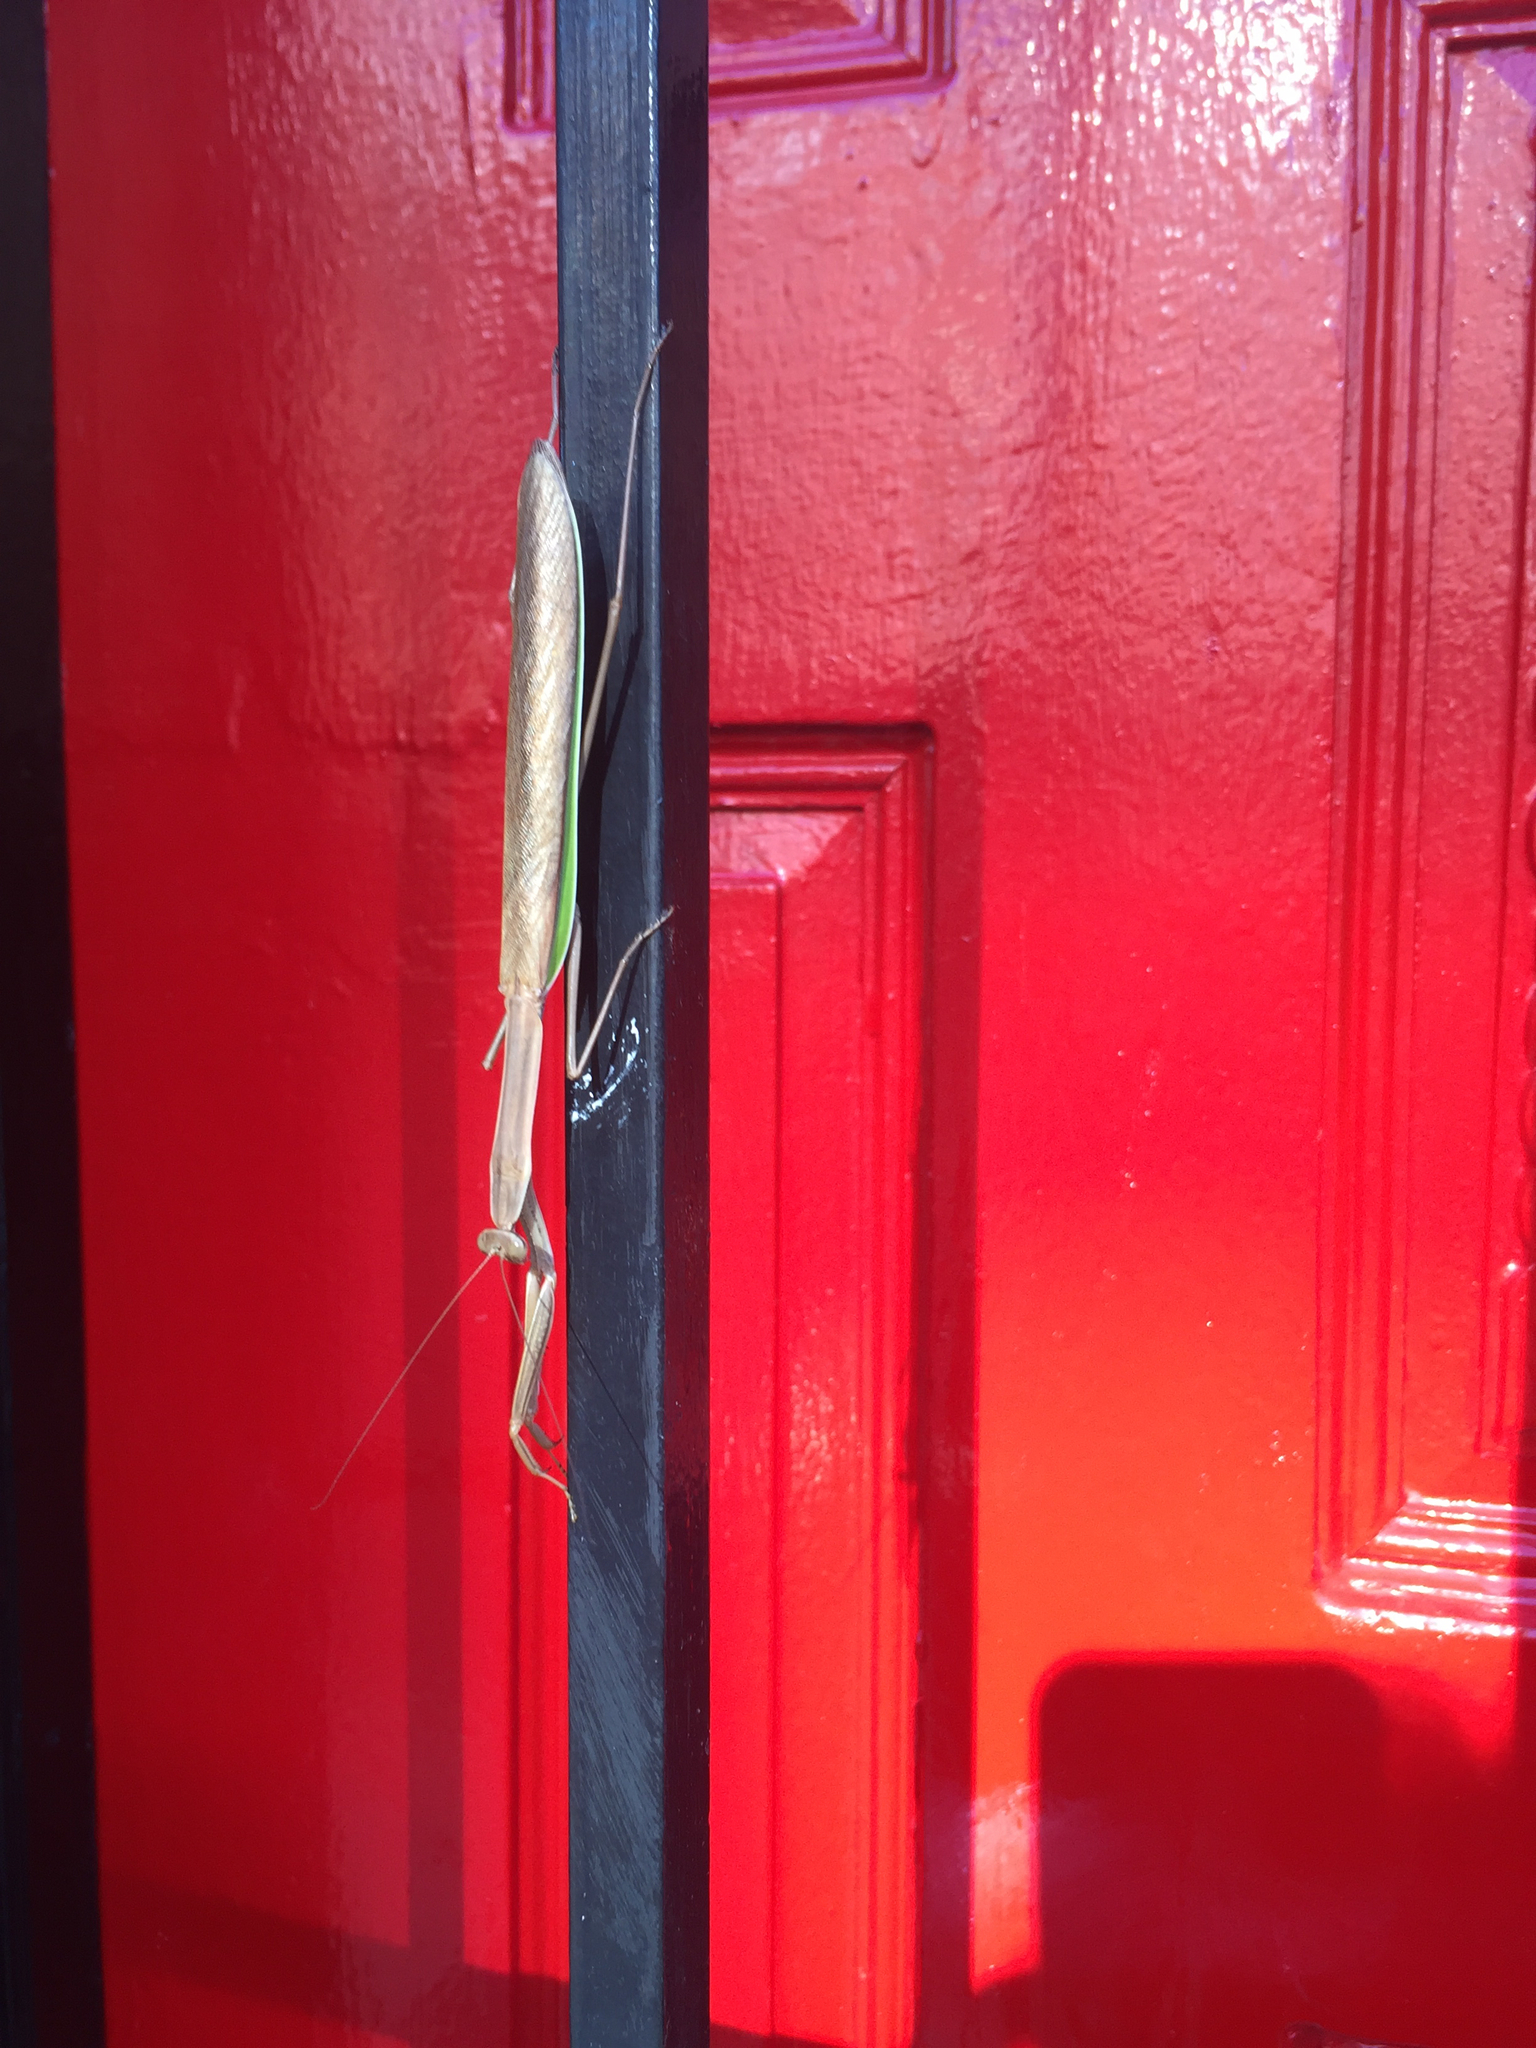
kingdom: Animalia
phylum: Arthropoda
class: Insecta
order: Mantodea
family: Mantidae
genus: Tenodera
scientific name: Tenodera sinensis
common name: Chinese mantis
